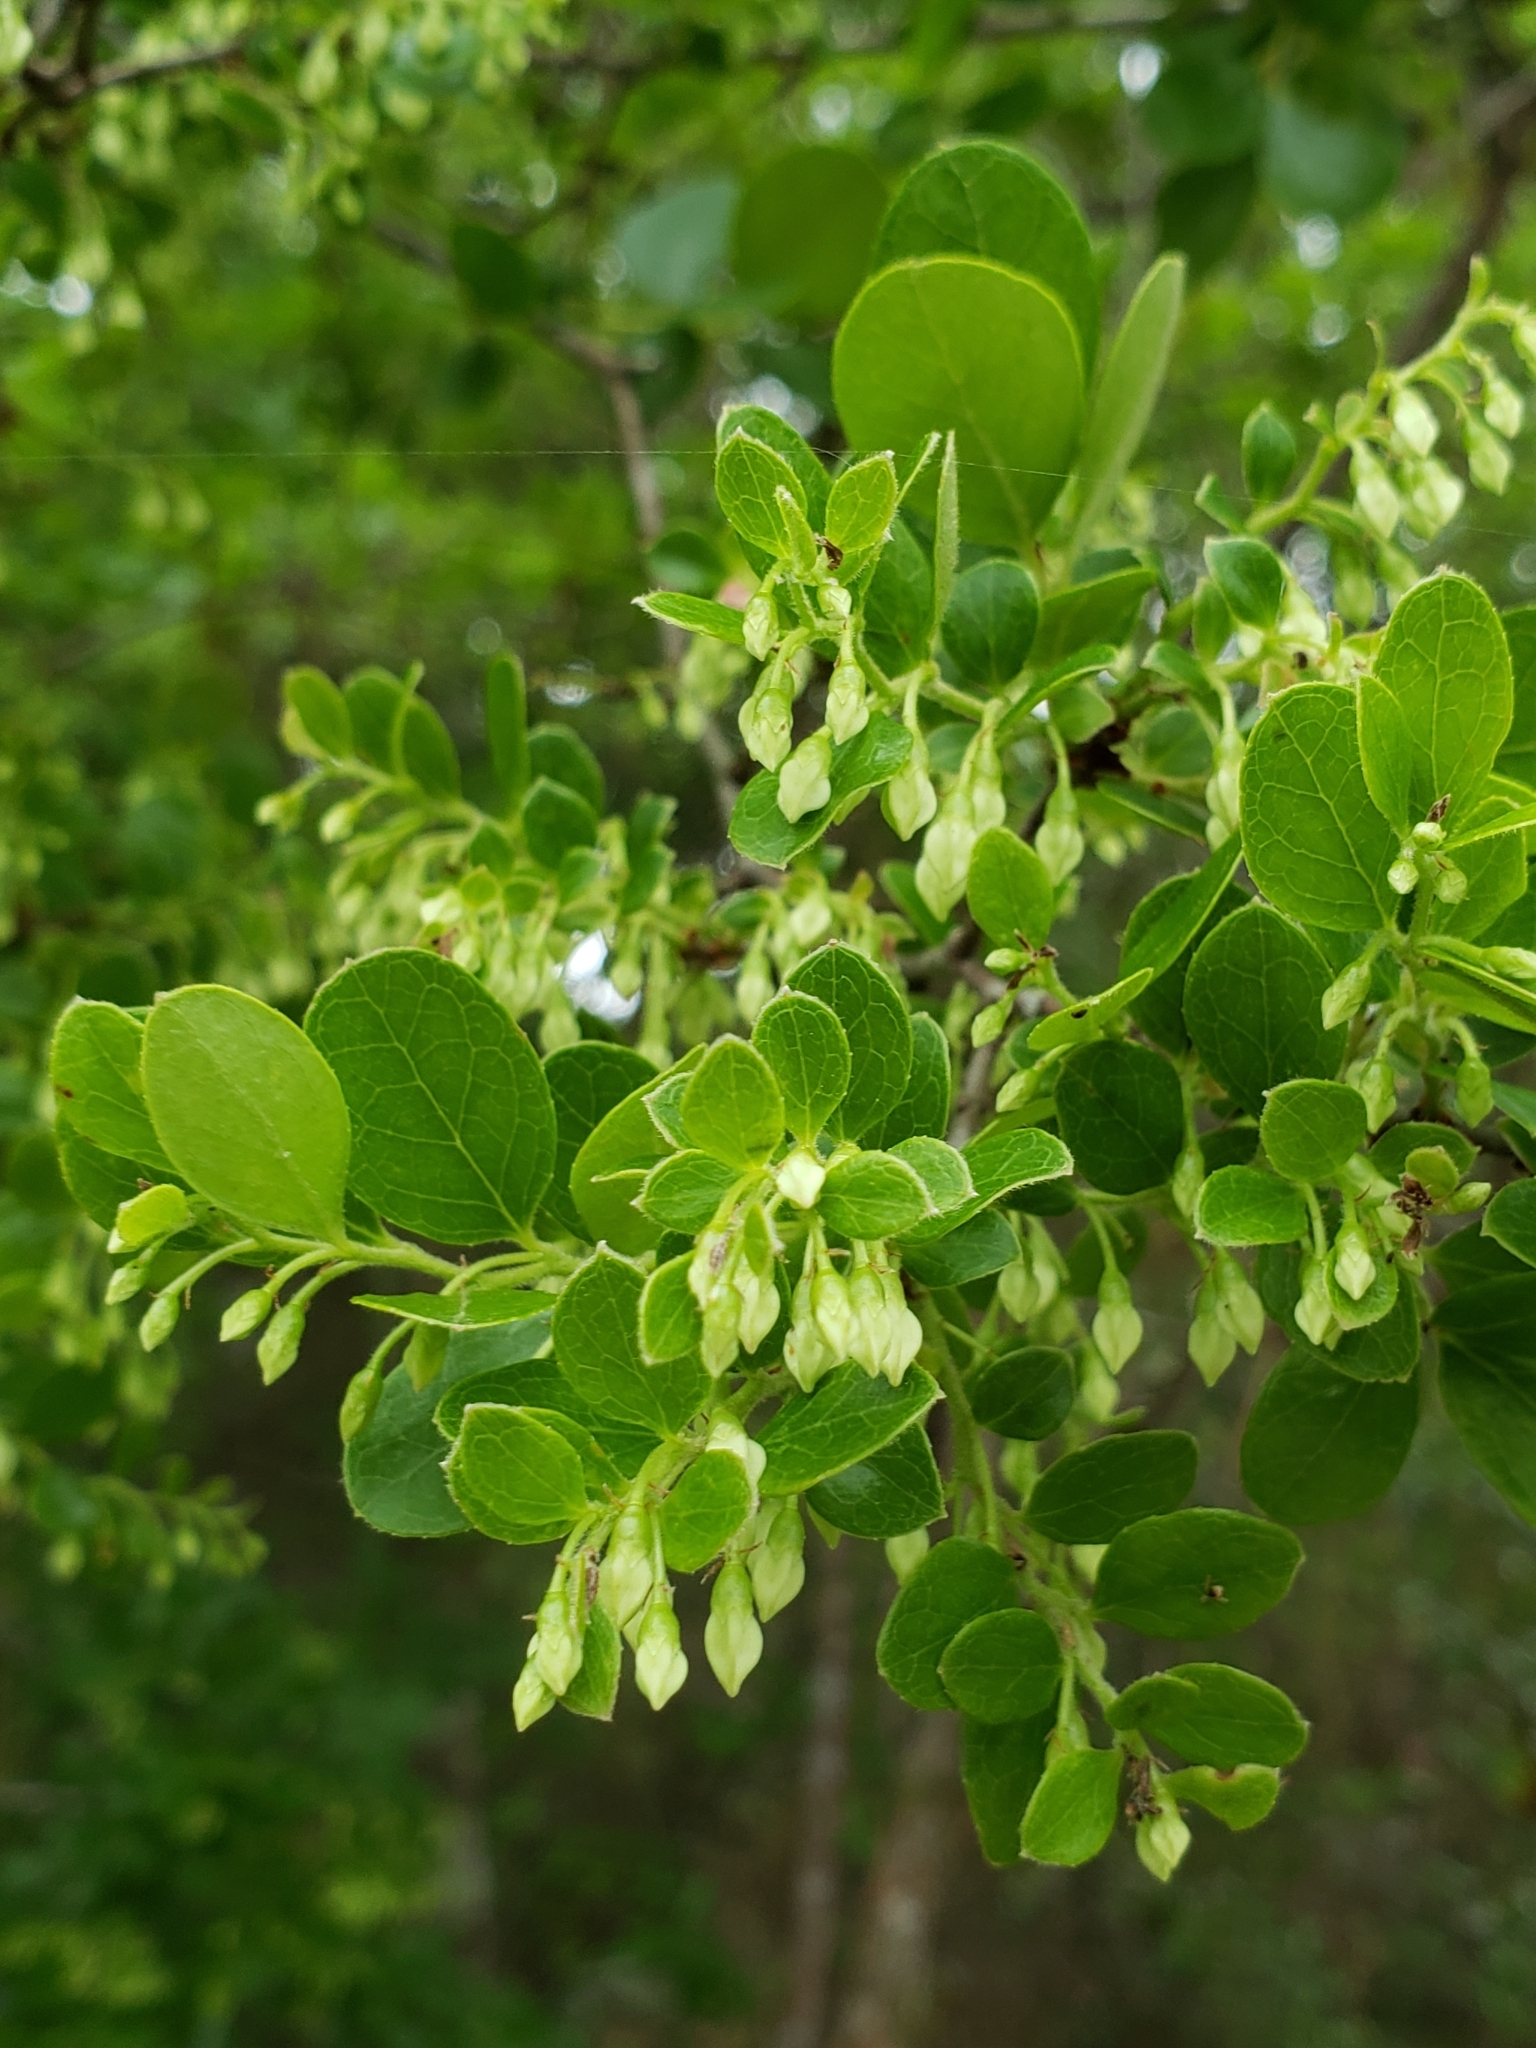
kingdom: Plantae
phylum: Tracheophyta
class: Magnoliopsida
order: Ericales
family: Ericaceae
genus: Vaccinium
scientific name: Vaccinium arboreum
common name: Farkleberry
